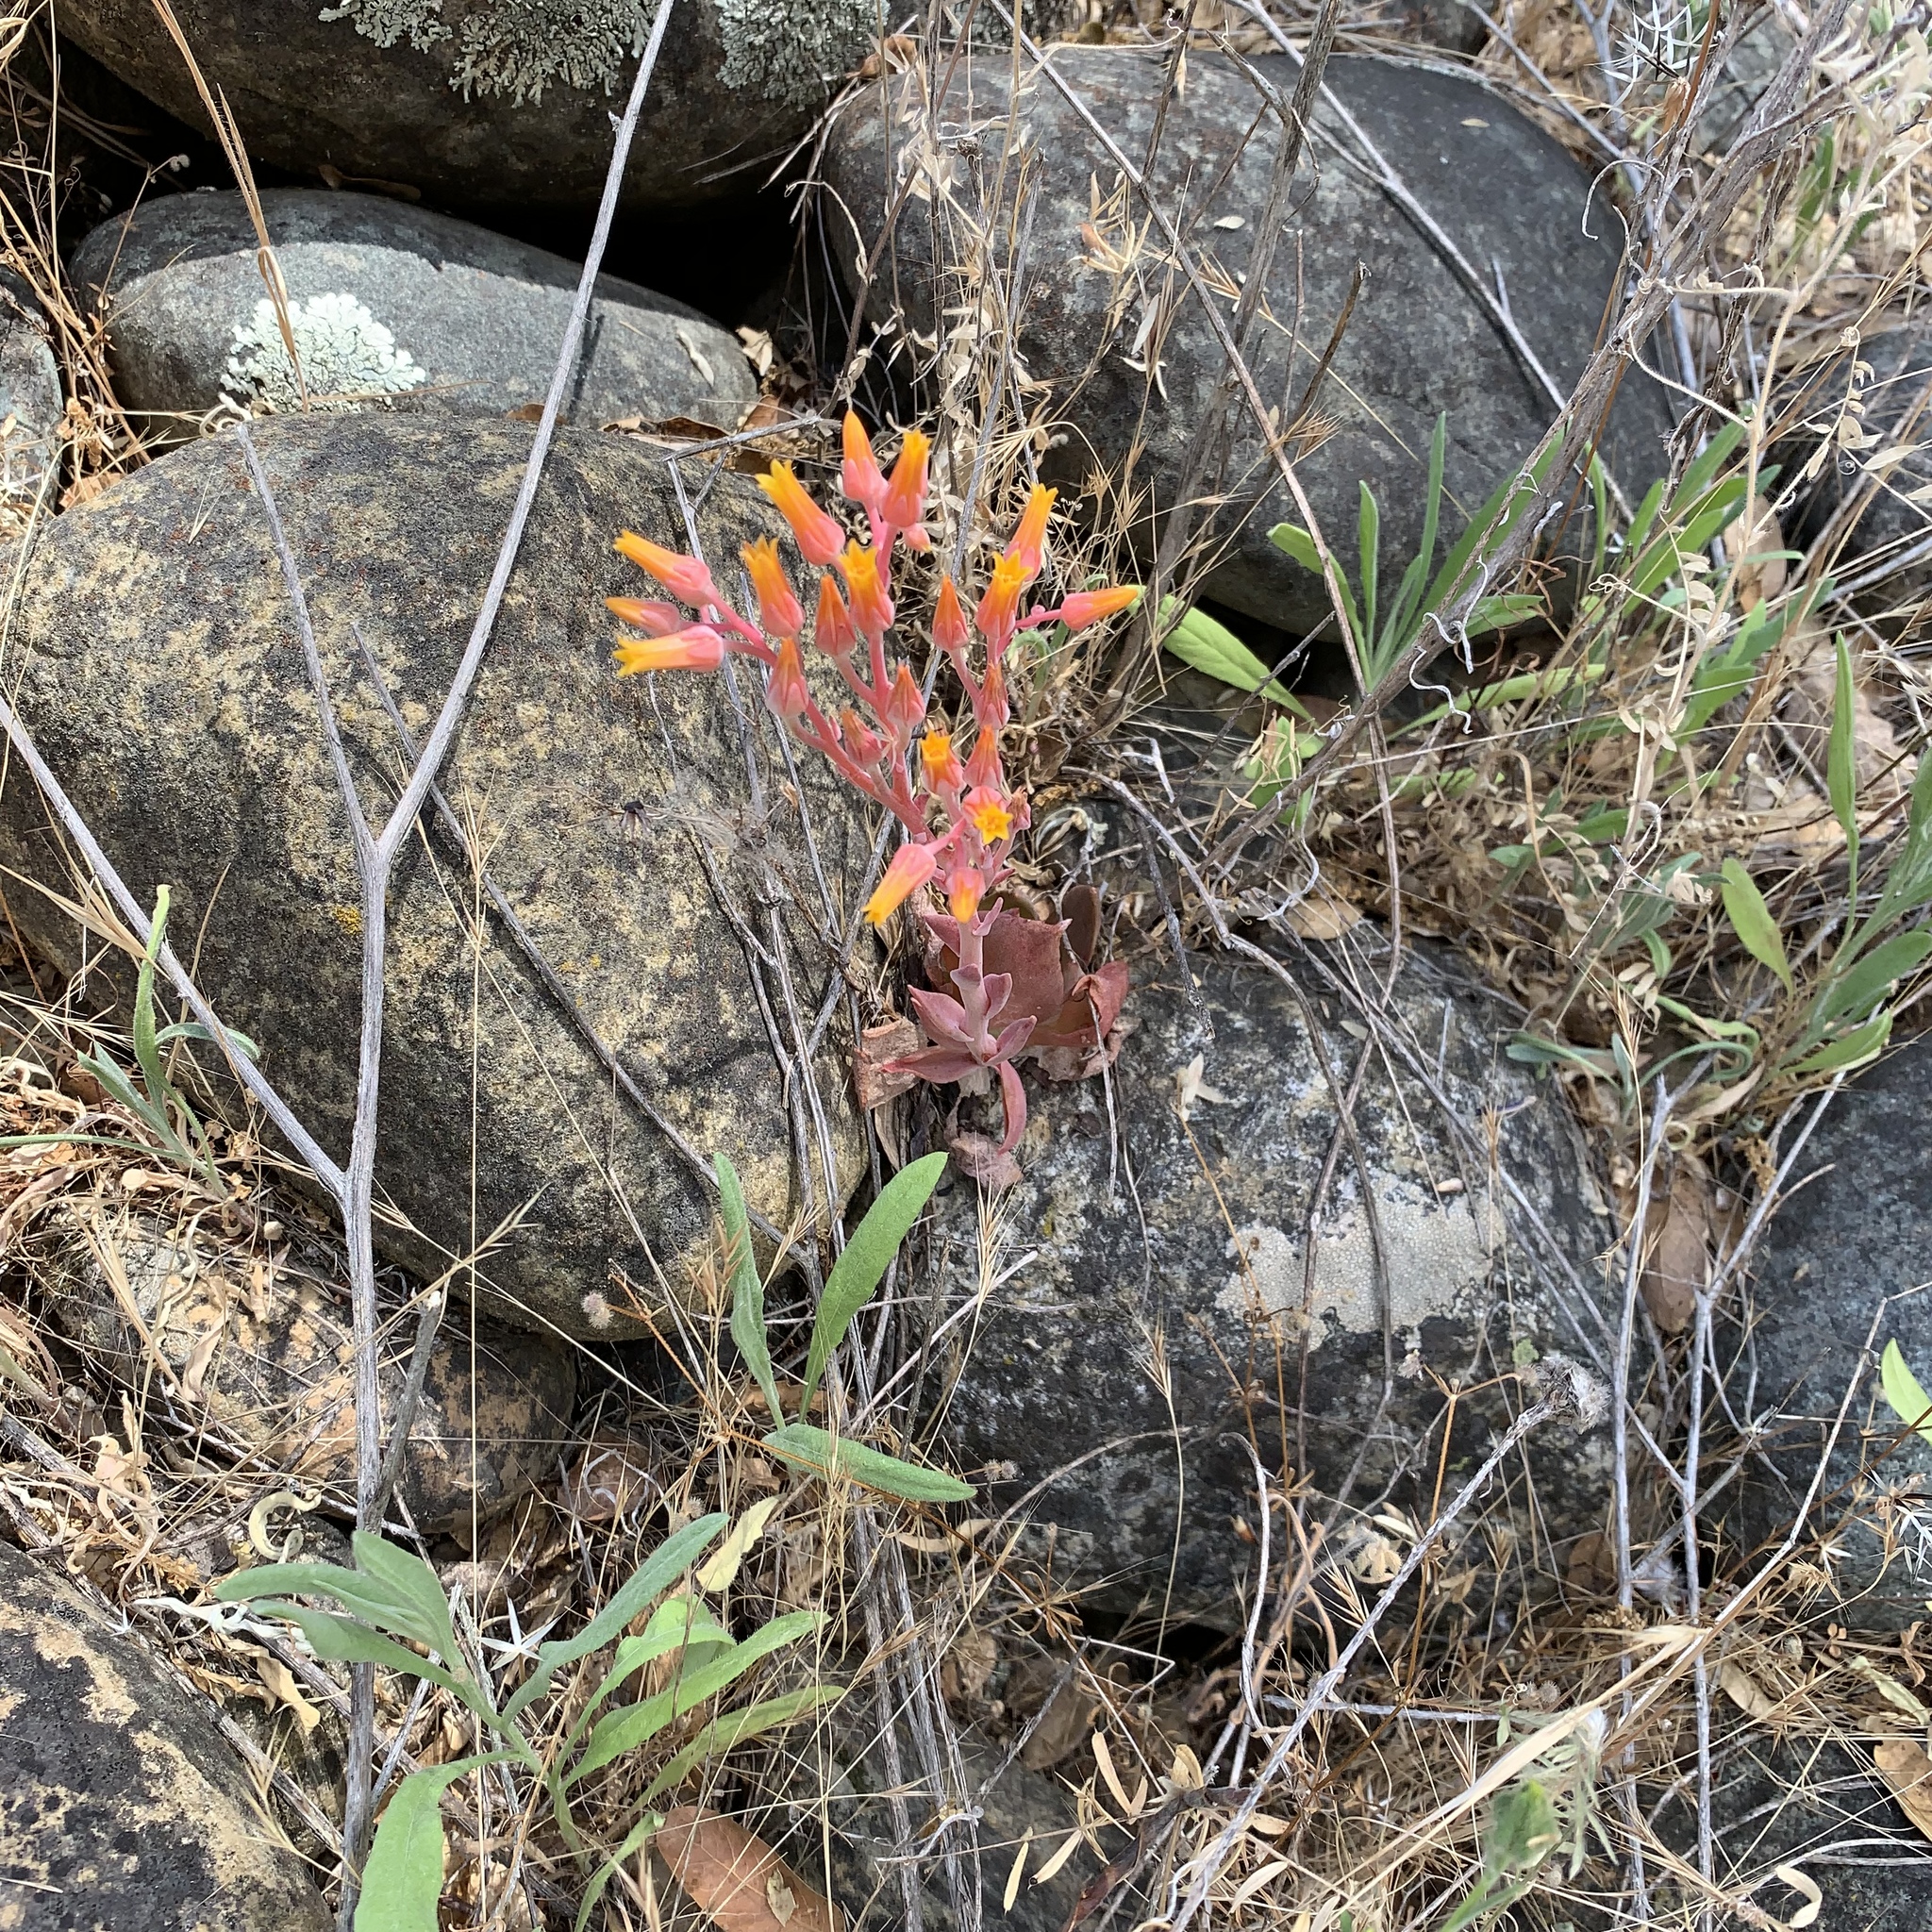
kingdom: Plantae
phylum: Tracheophyta
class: Magnoliopsida
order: Saxifragales
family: Crassulaceae
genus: Dudleya
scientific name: Dudleya cymosa
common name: Canyon dudleya
